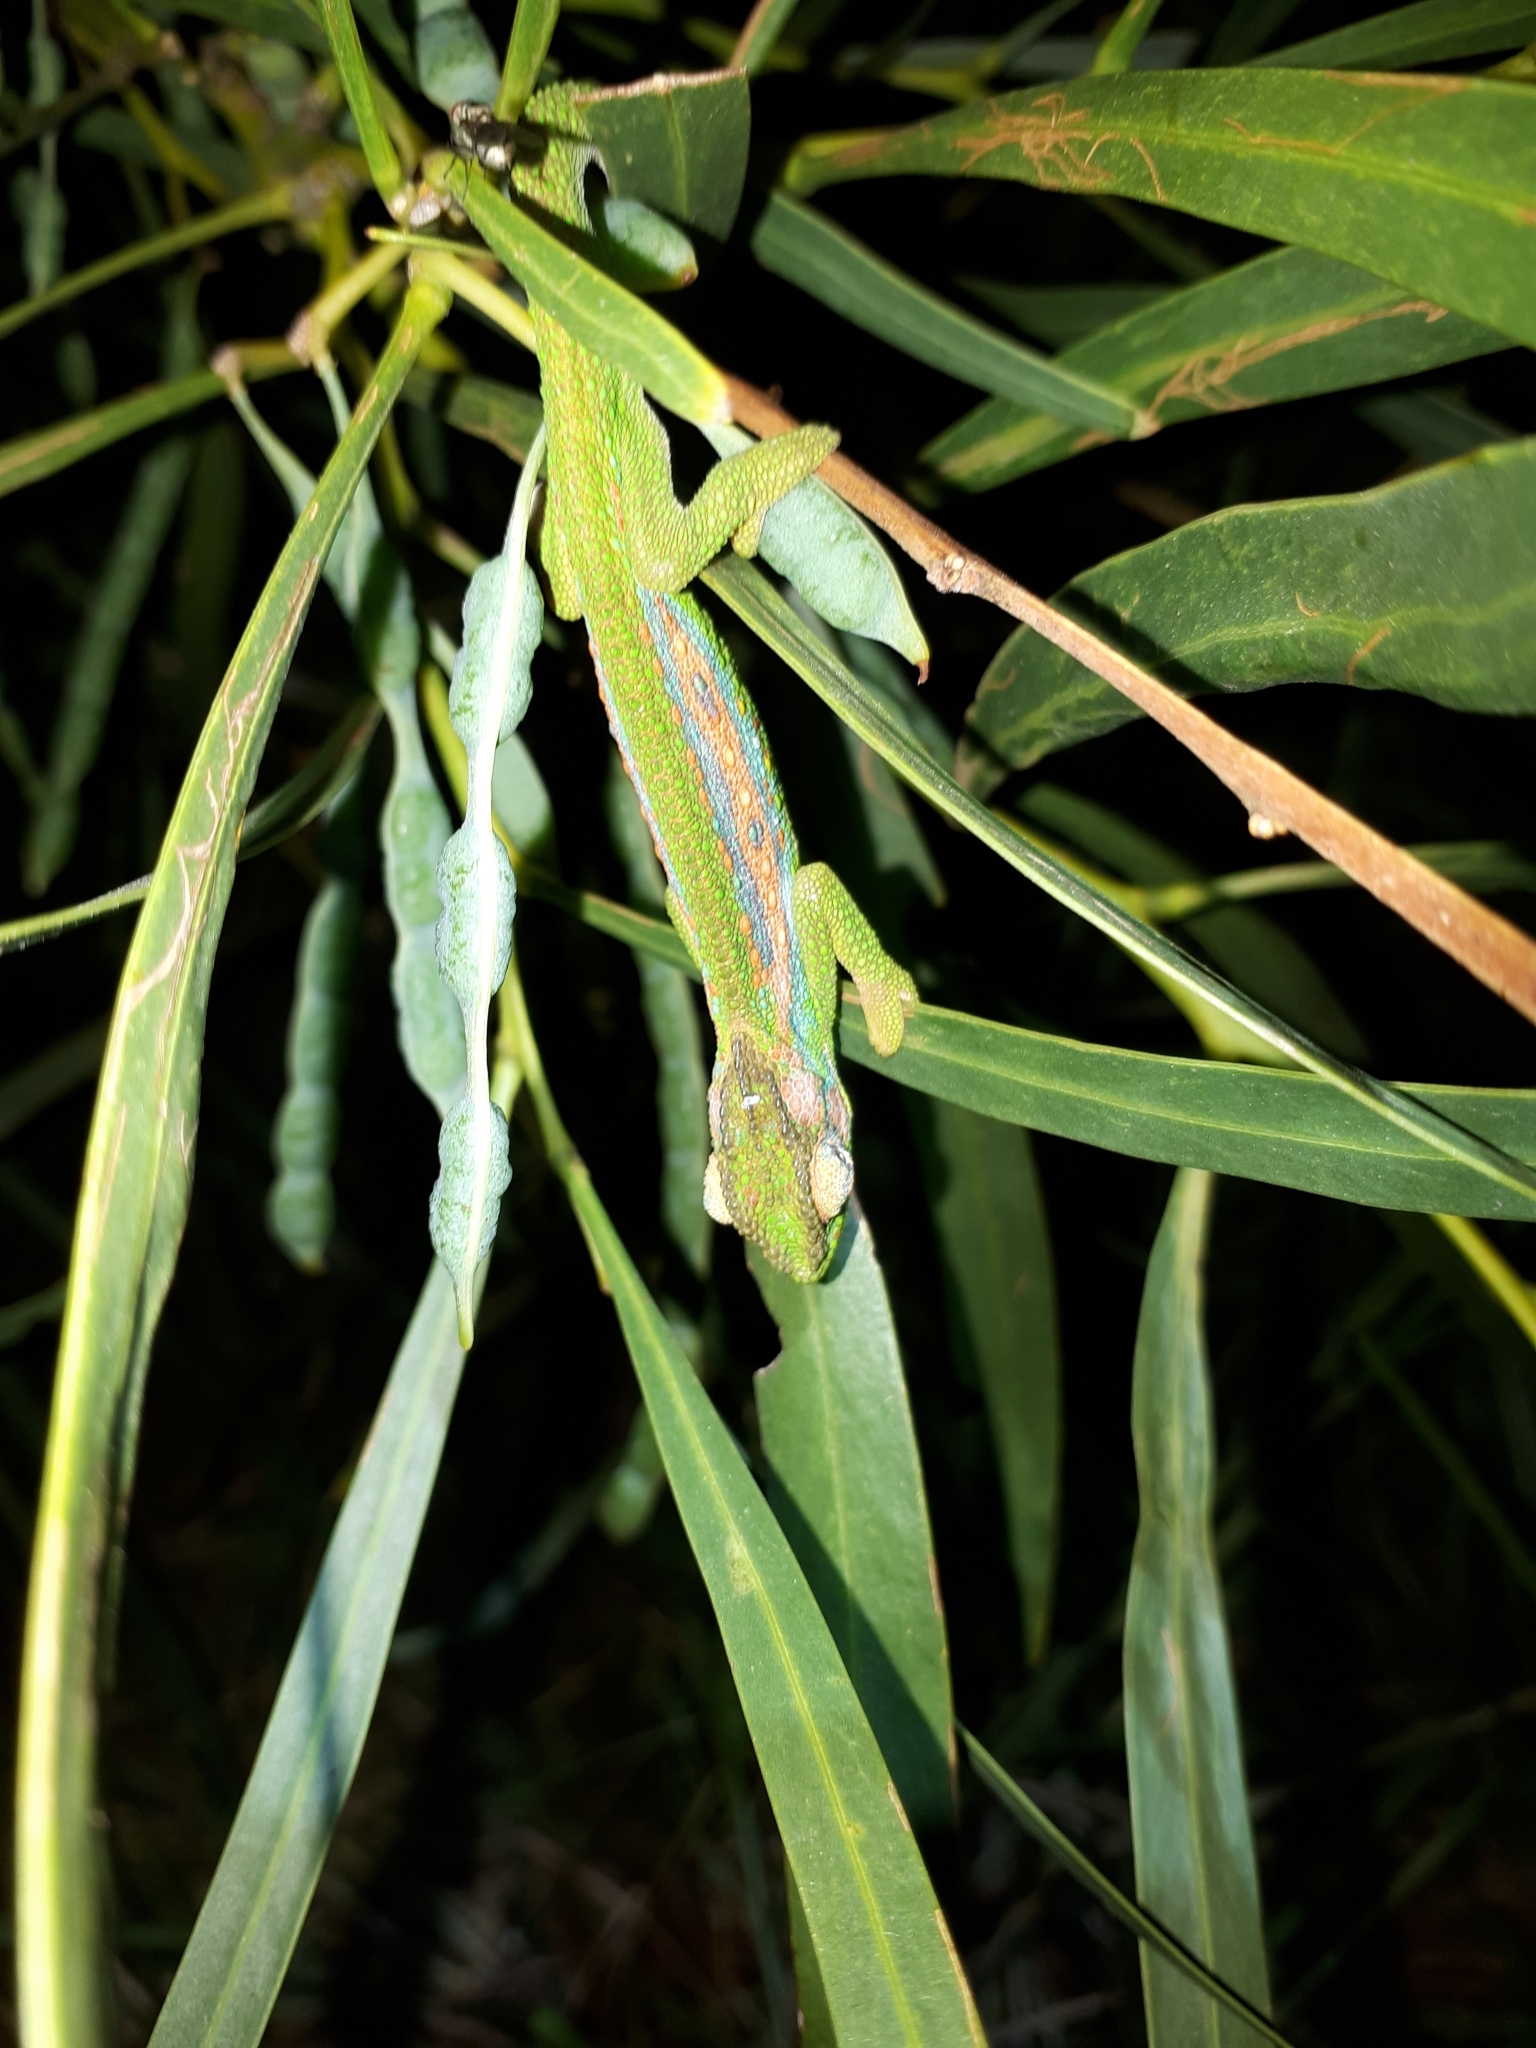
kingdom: Animalia
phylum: Chordata
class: Squamata
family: Chamaeleonidae
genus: Bradypodion
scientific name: Bradypodion pumilum
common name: Cape dwarf chameleon
